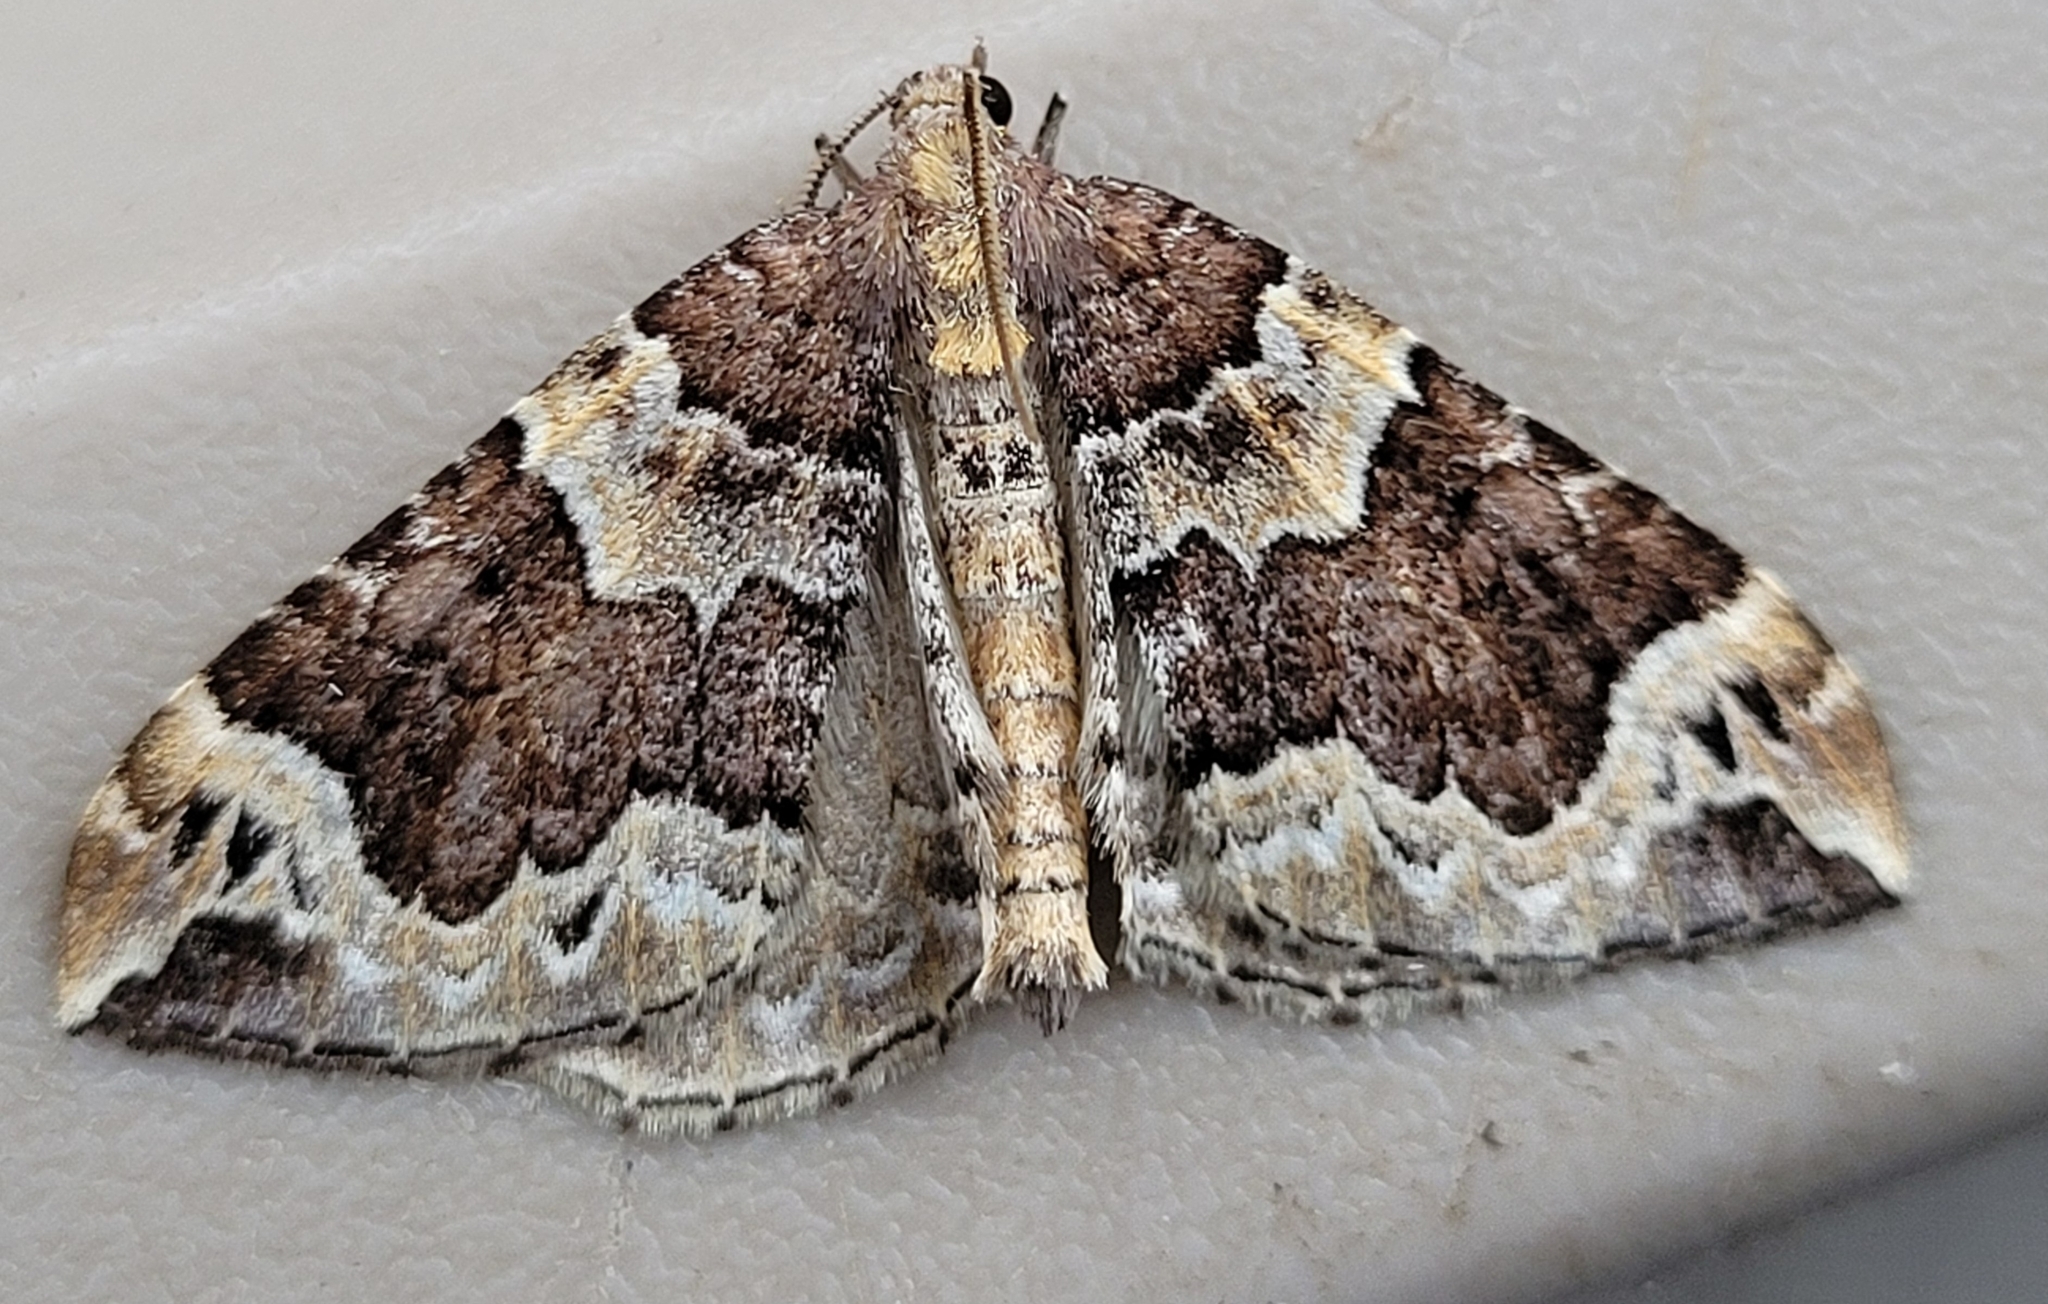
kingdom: Animalia
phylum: Arthropoda
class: Insecta
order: Lepidoptera
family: Geometridae
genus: Eulithis
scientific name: Eulithis xylina
